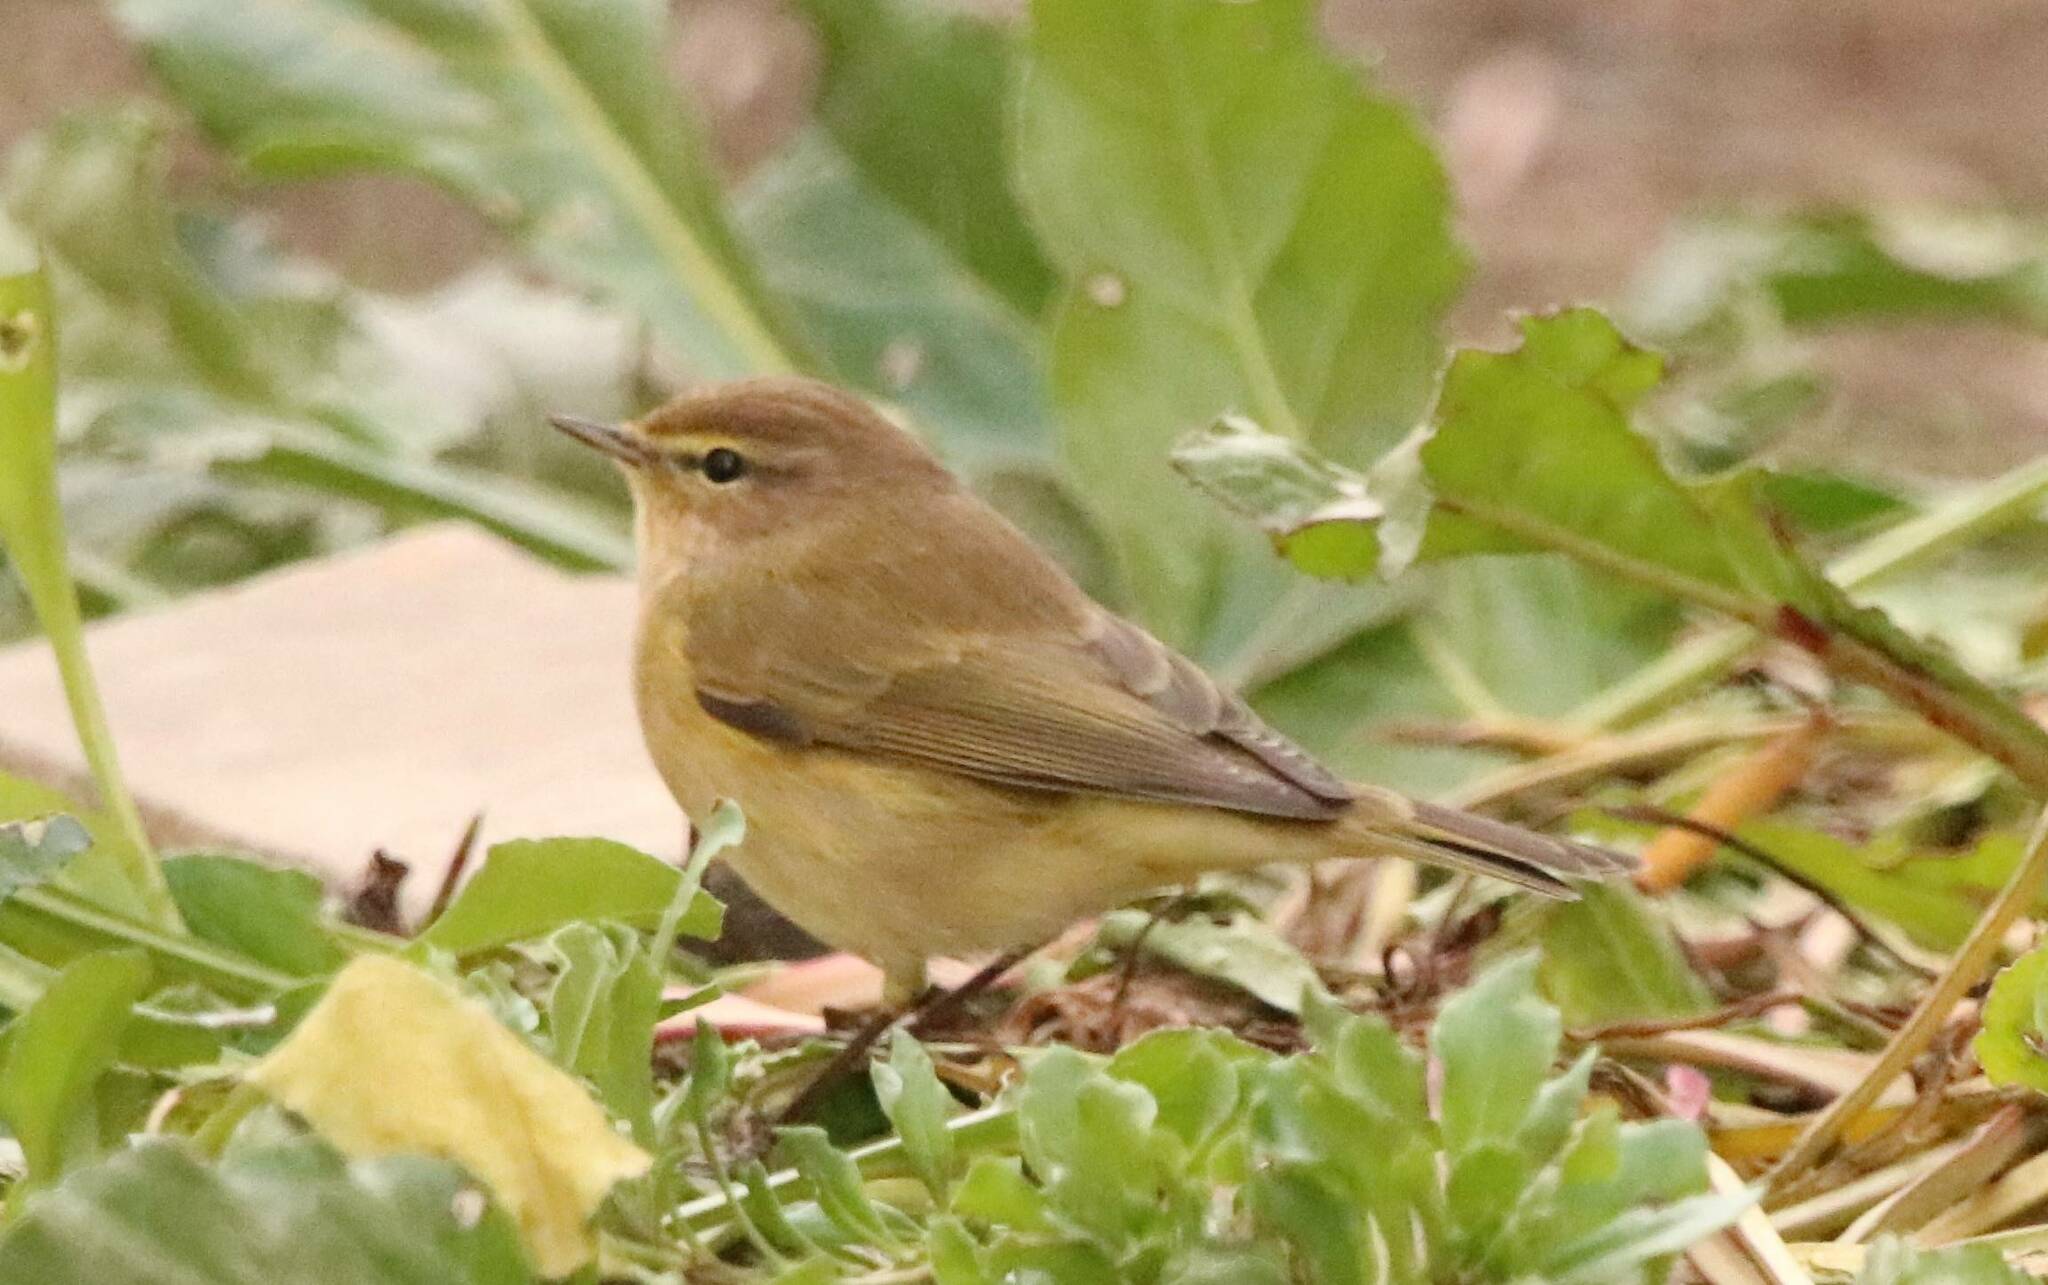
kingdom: Animalia
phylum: Chordata
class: Aves
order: Passeriformes
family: Phylloscopidae
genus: Phylloscopus
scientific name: Phylloscopus collybita
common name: Common chiffchaff
